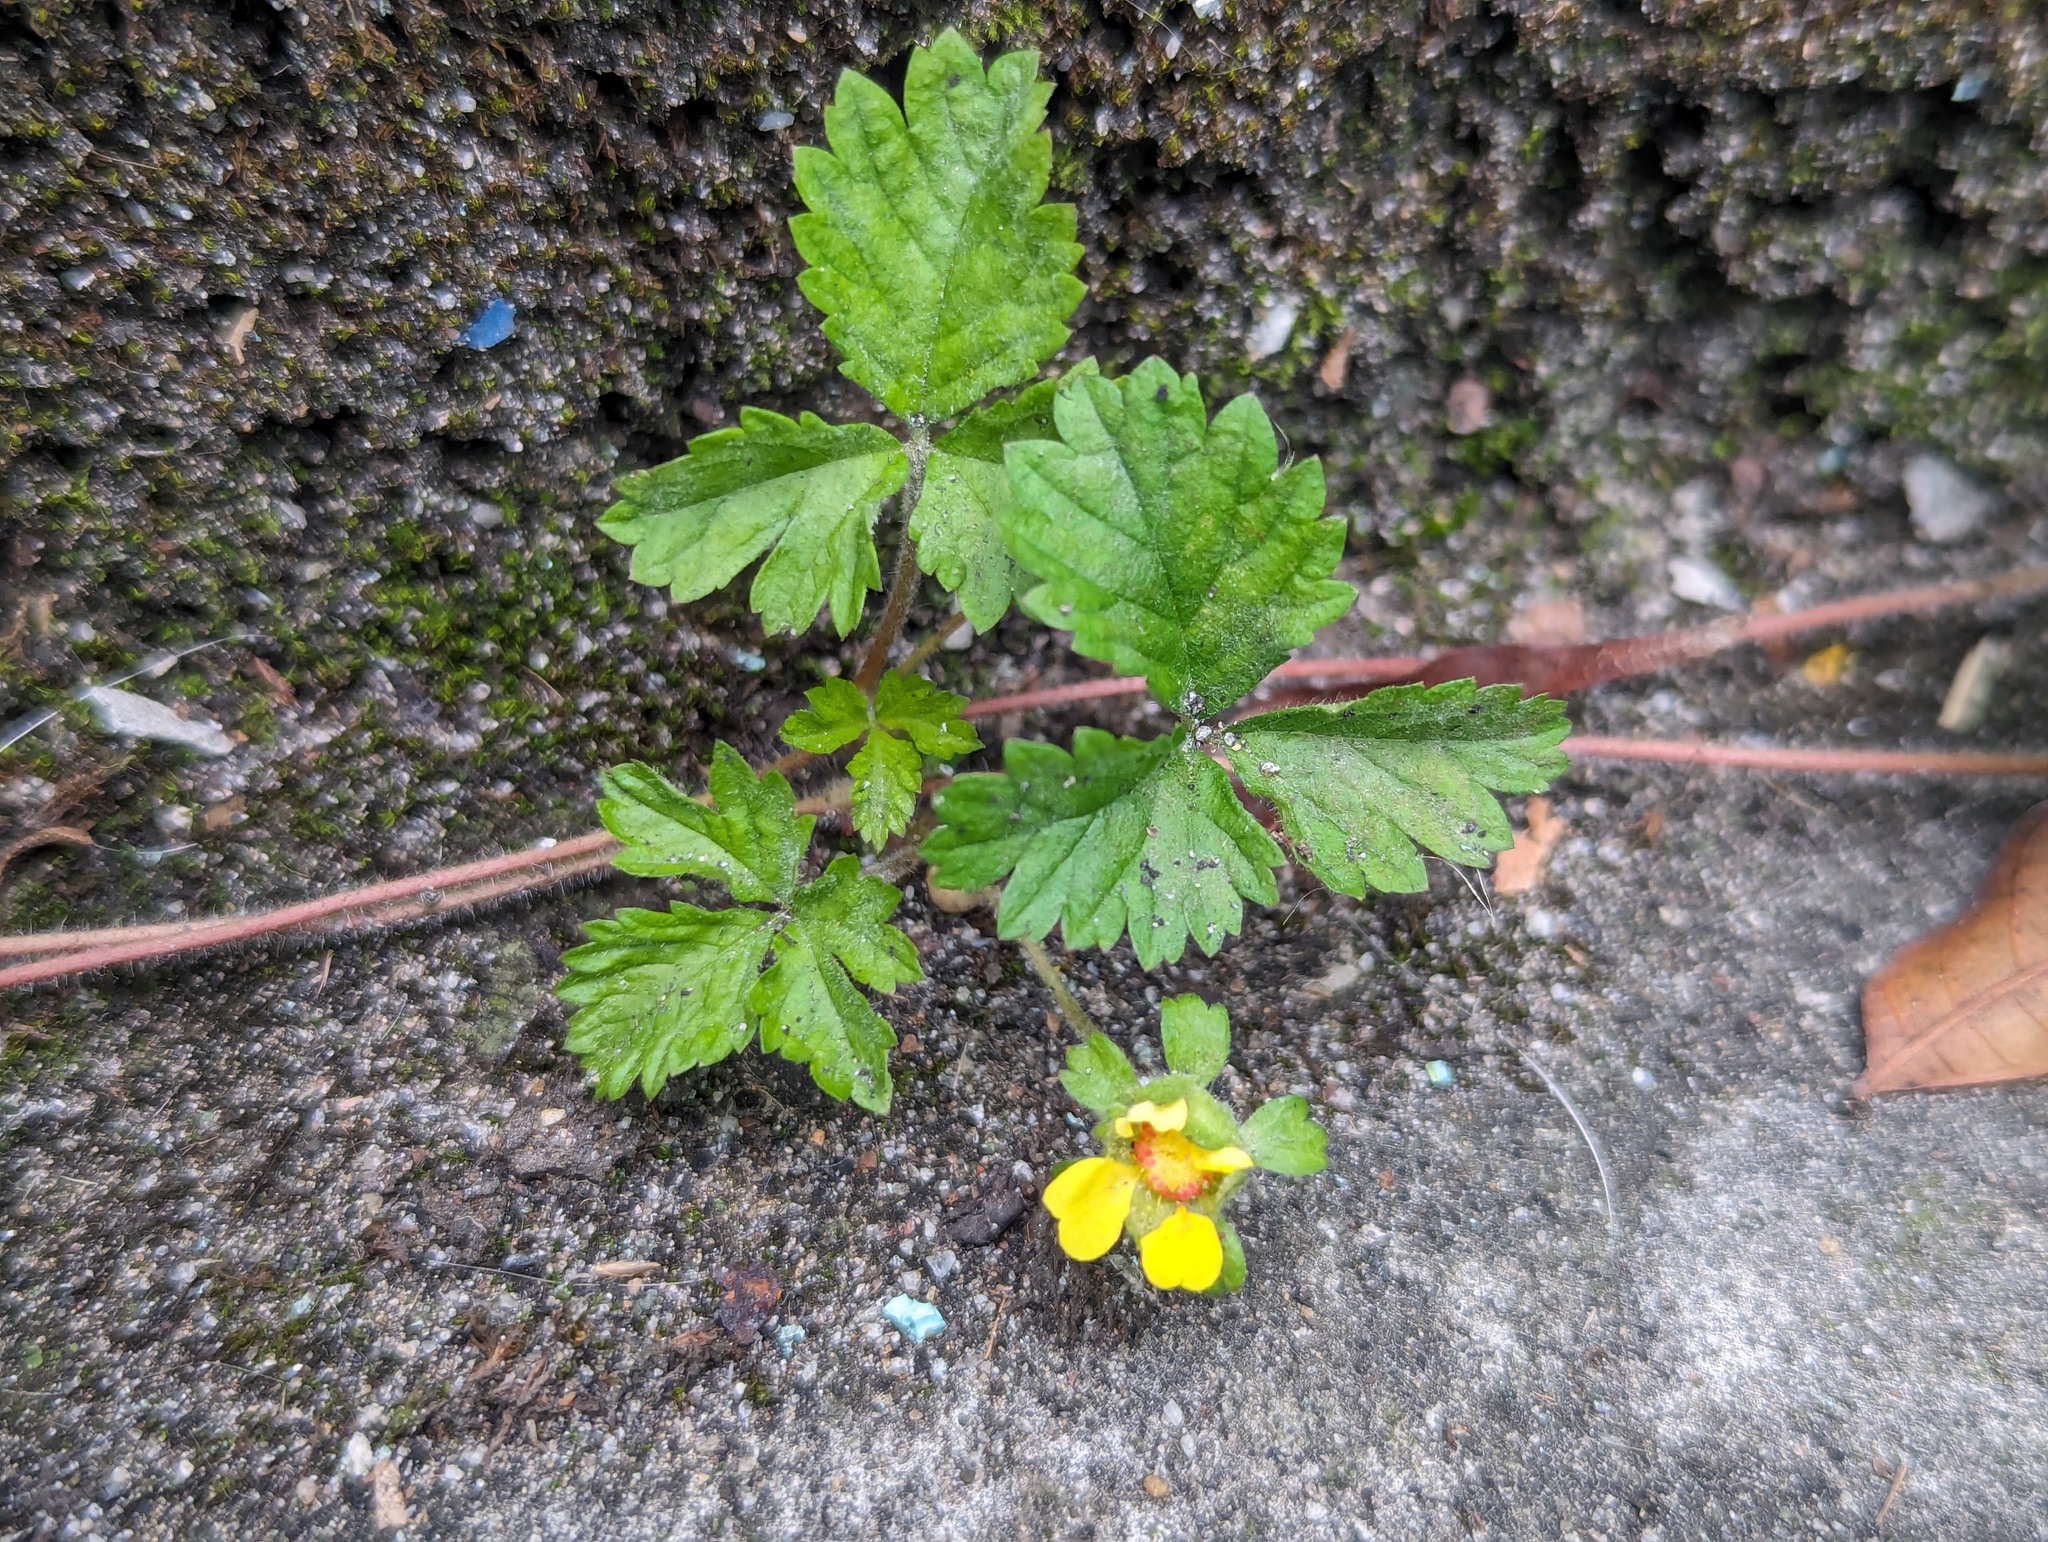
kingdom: Plantae
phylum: Tracheophyta
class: Magnoliopsida
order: Rosales
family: Rosaceae
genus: Potentilla
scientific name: Potentilla wallichiana
